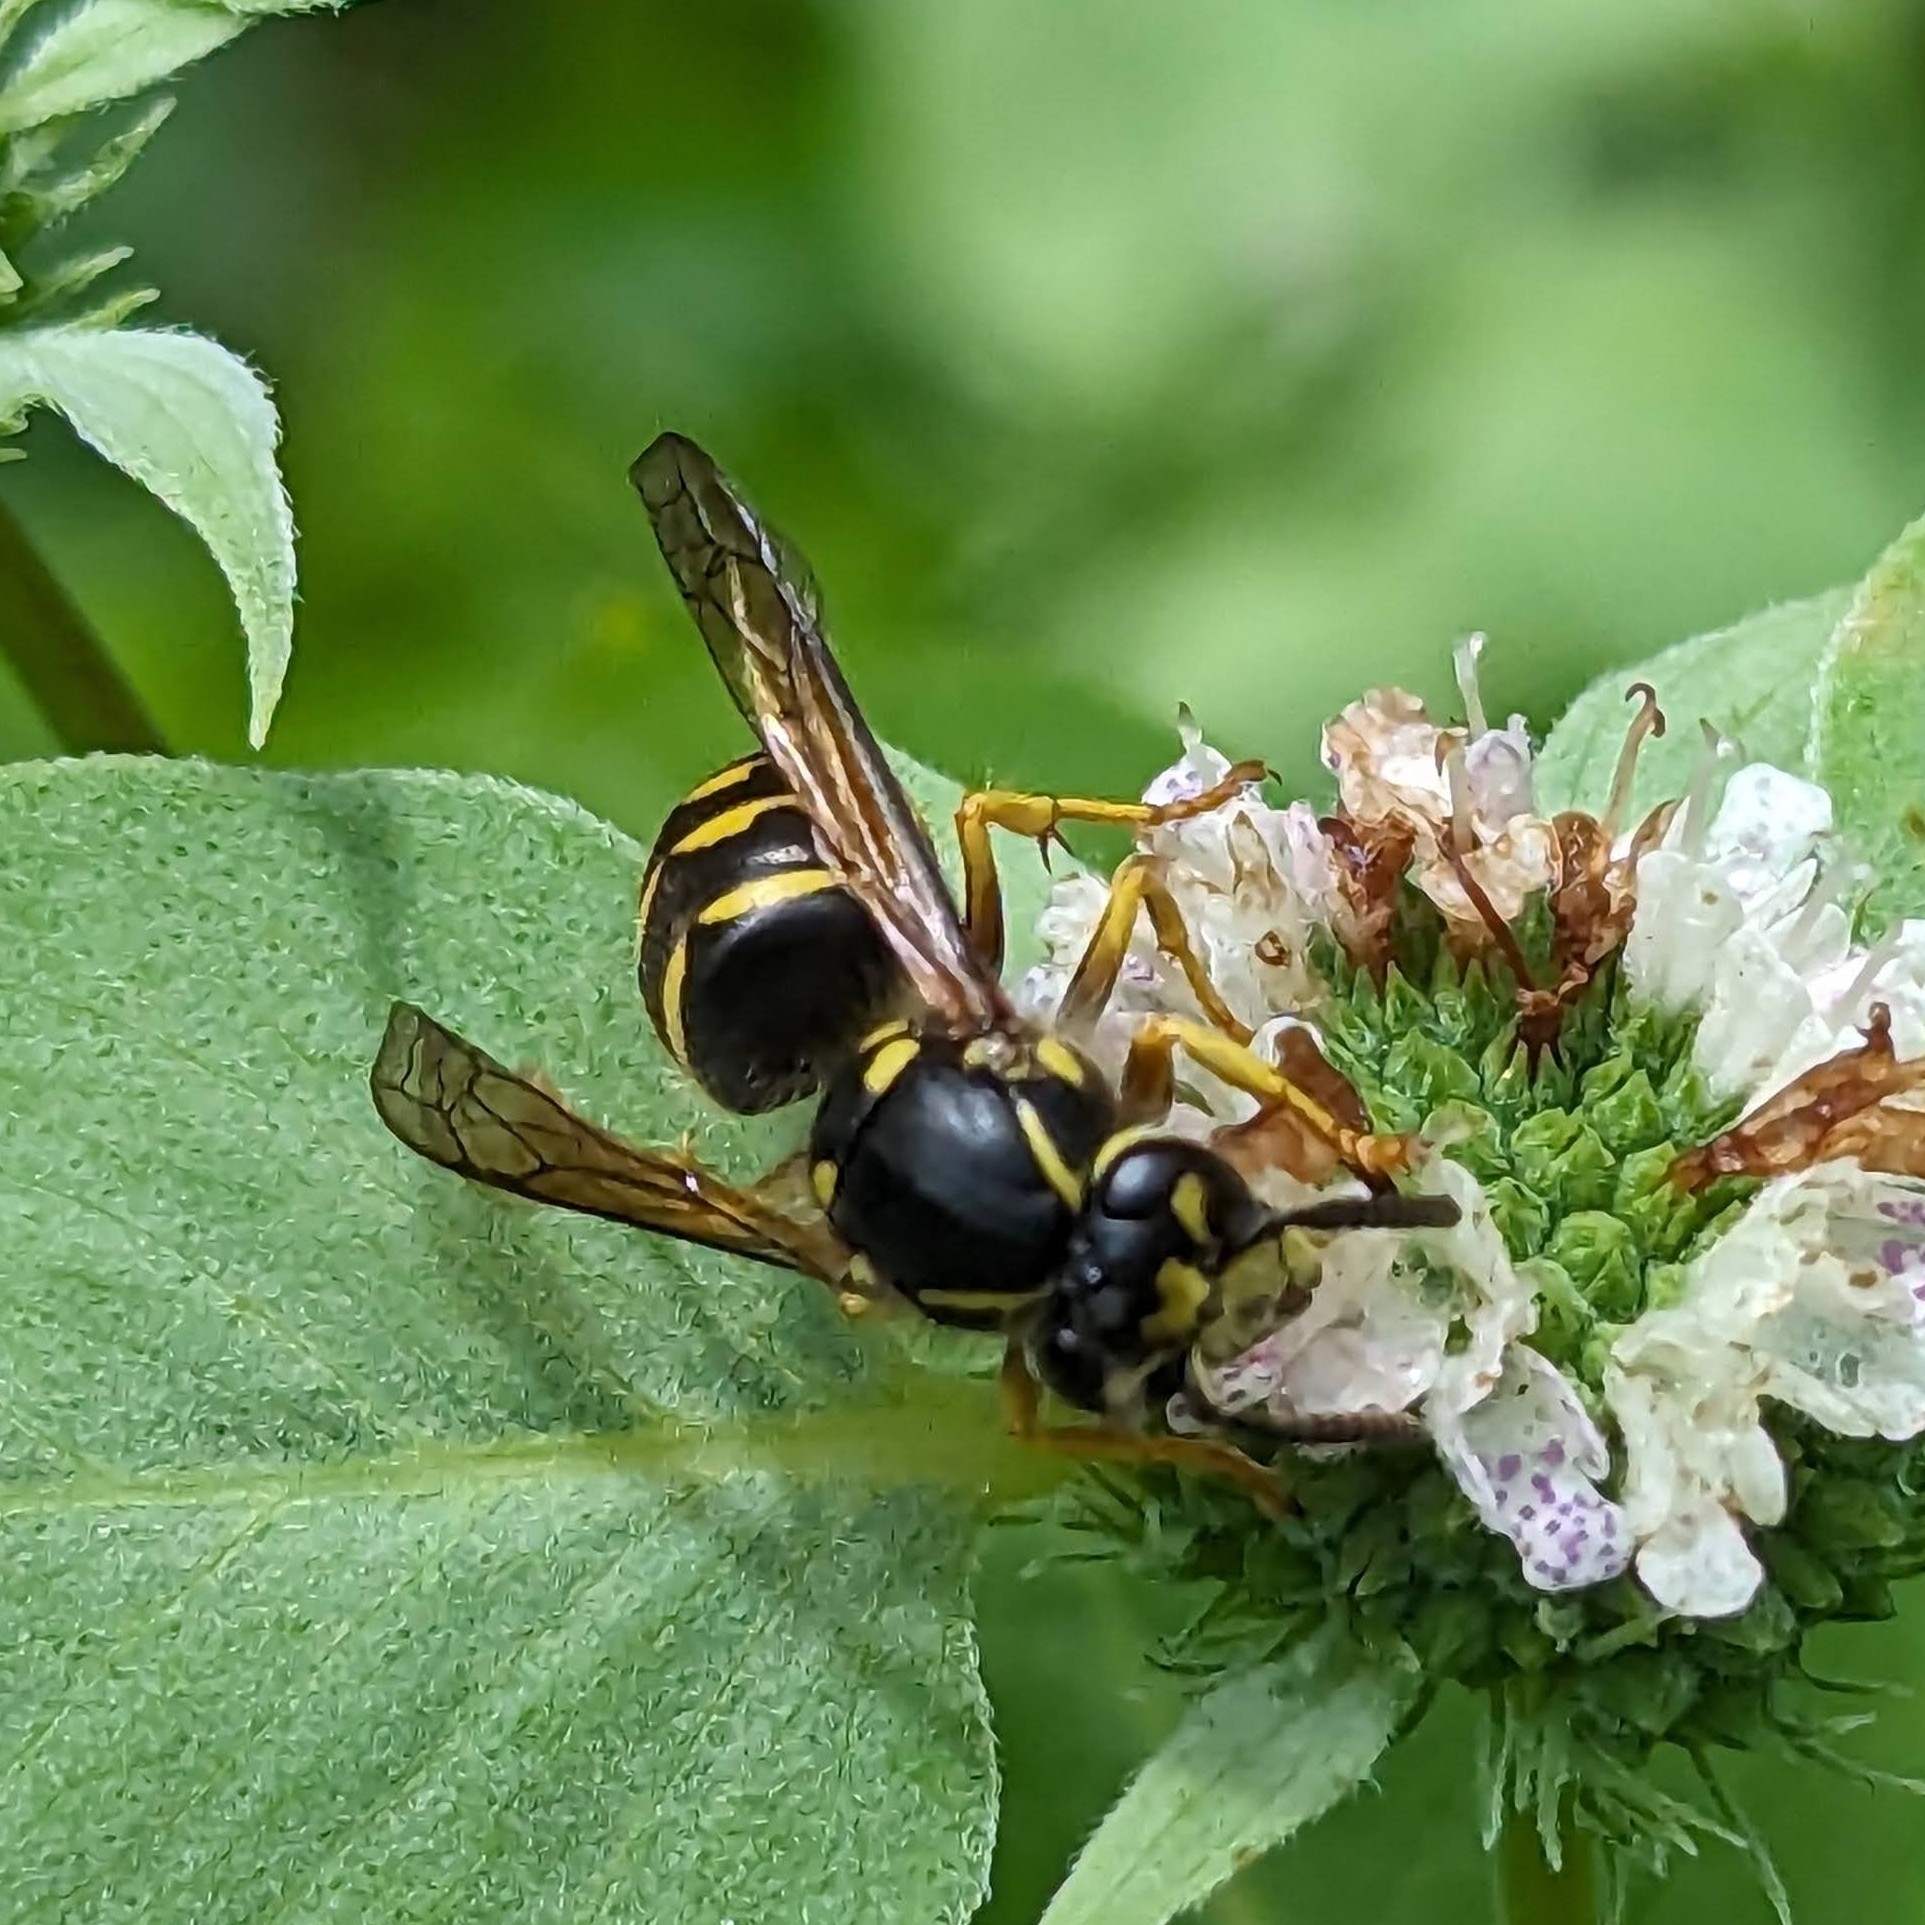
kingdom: Animalia
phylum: Arthropoda
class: Insecta
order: Hymenoptera
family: Vespidae
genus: Dolichovespula
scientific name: Dolichovespula arenaria
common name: Aerial yellowjacket
